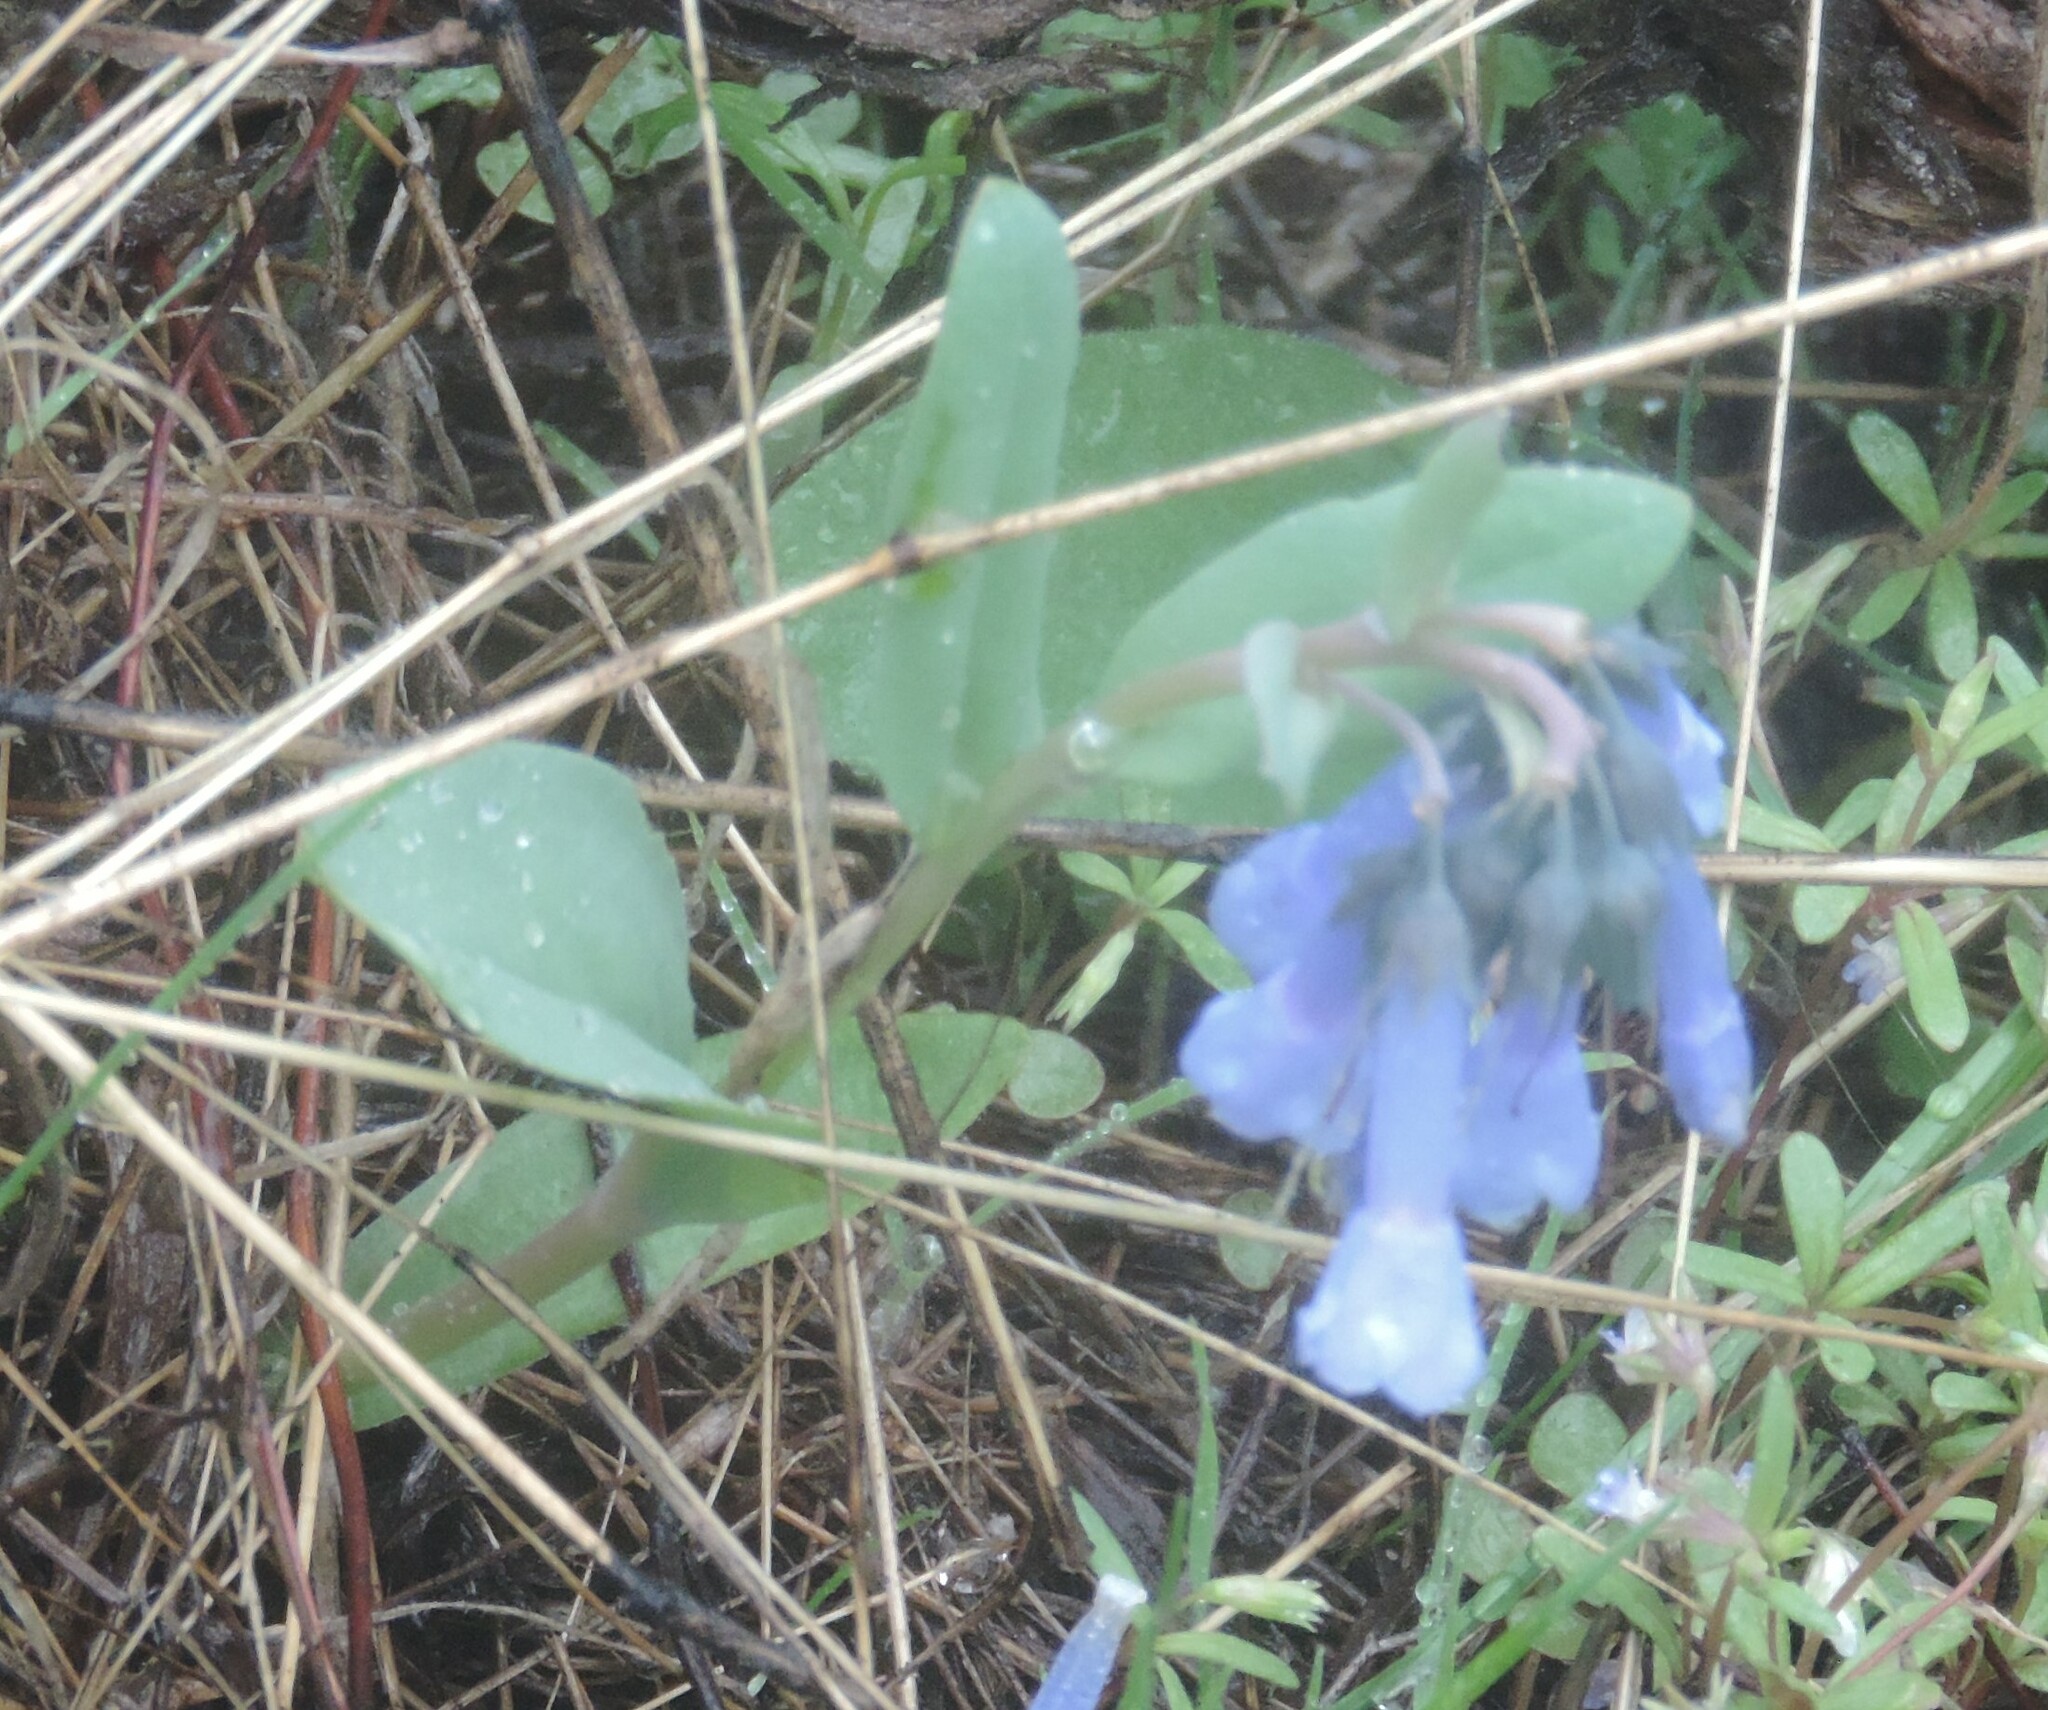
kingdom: Plantae
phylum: Tracheophyta
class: Magnoliopsida
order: Boraginales
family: Boraginaceae
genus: Mertensia
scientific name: Mertensia longiflora
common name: Large-flowered bluebells
